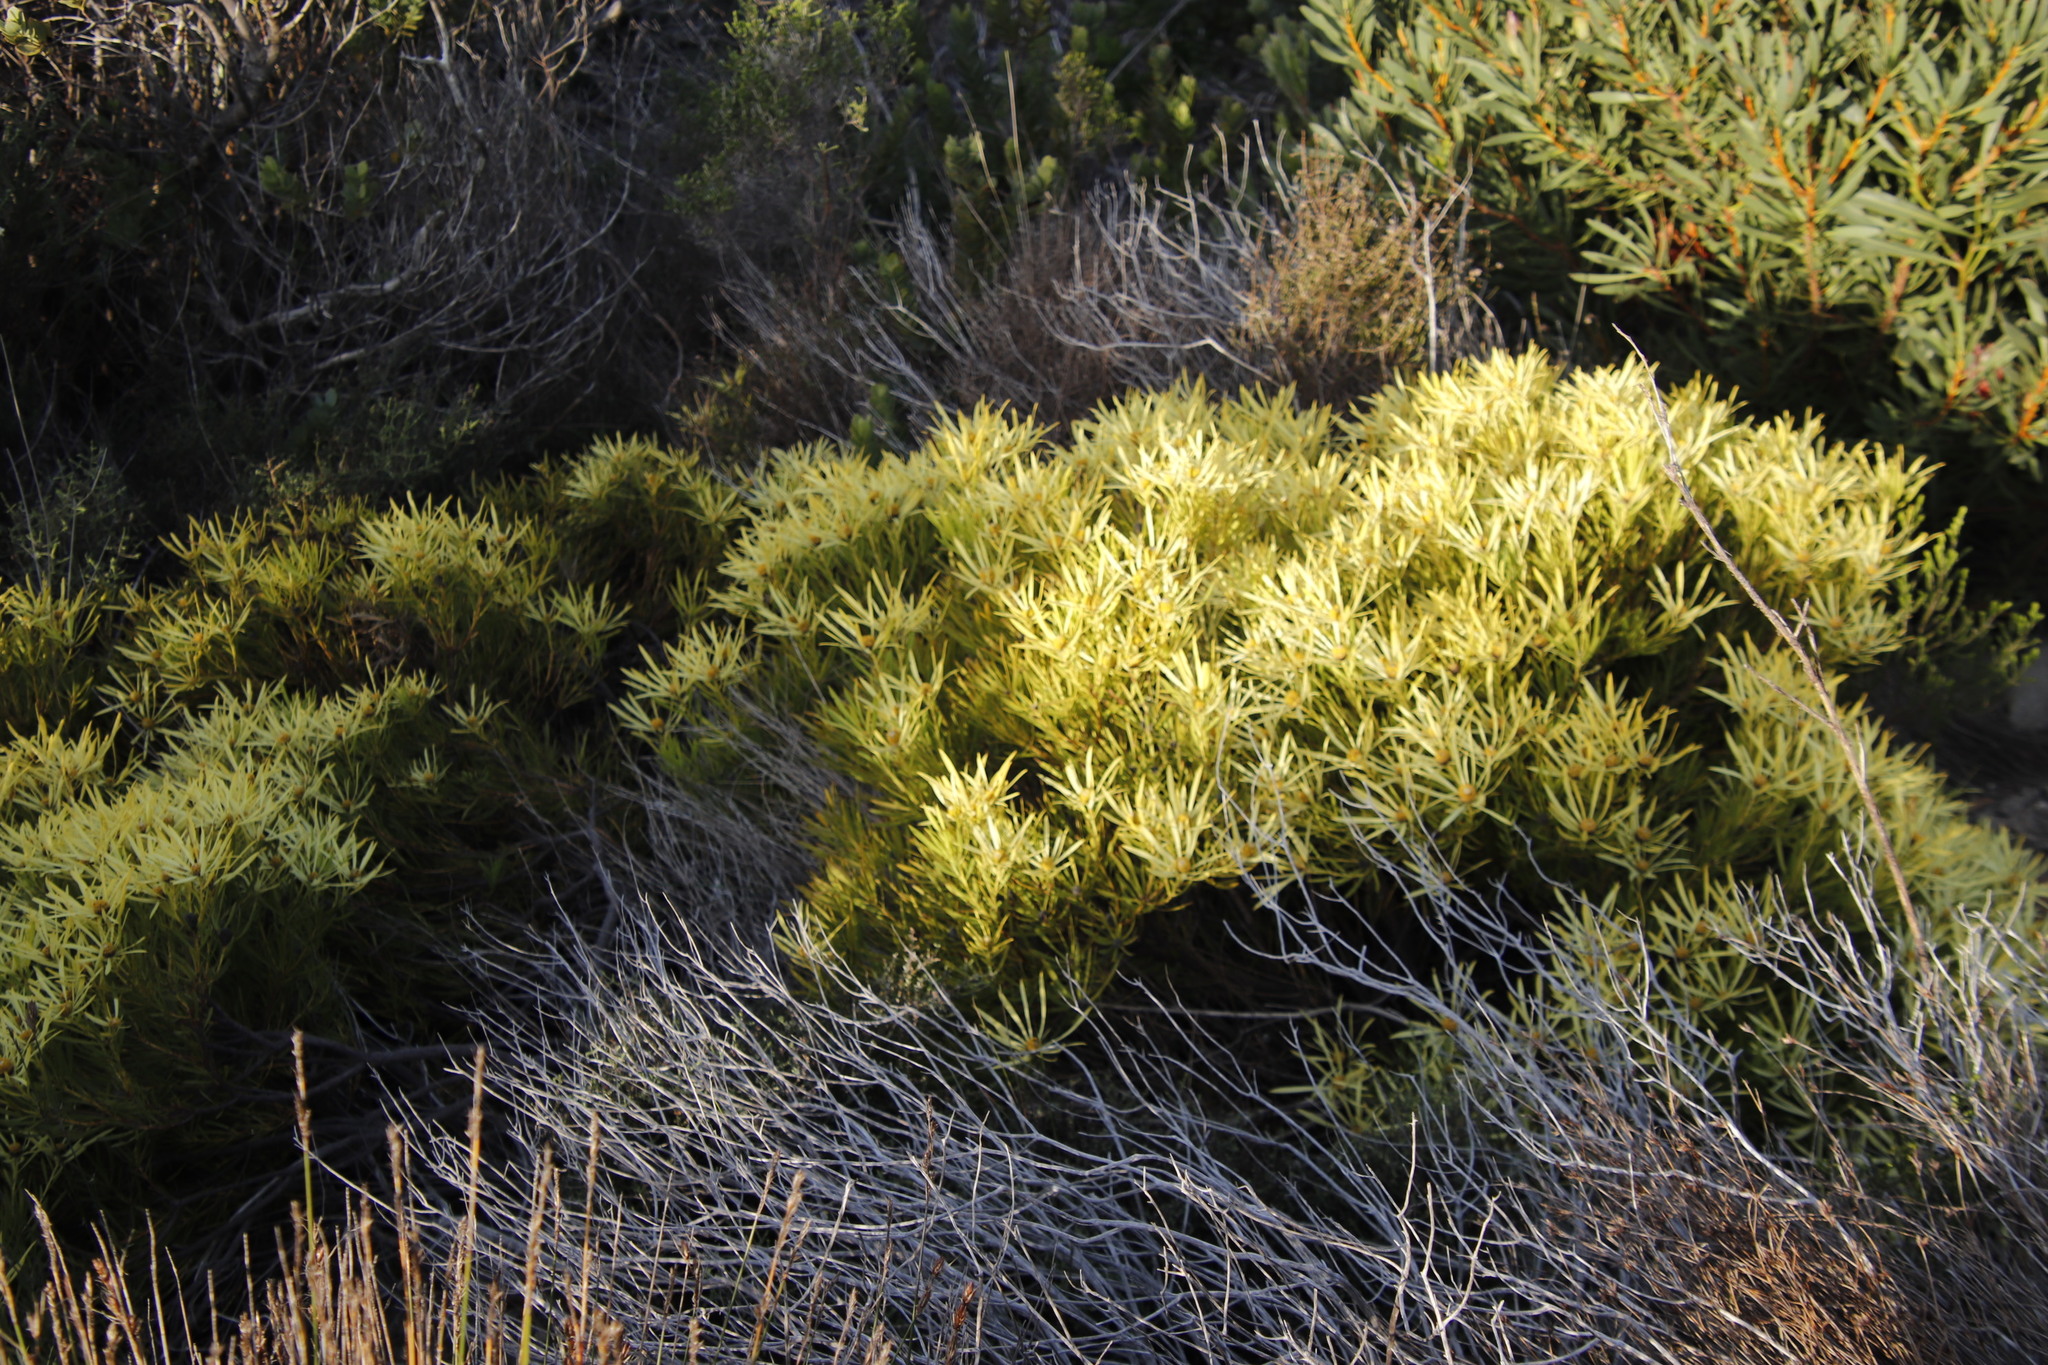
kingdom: Plantae
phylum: Tracheophyta
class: Magnoliopsida
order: Proteales
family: Proteaceae
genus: Leucadendron
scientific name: Leucadendron salignum
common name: Common sunshine conebush
